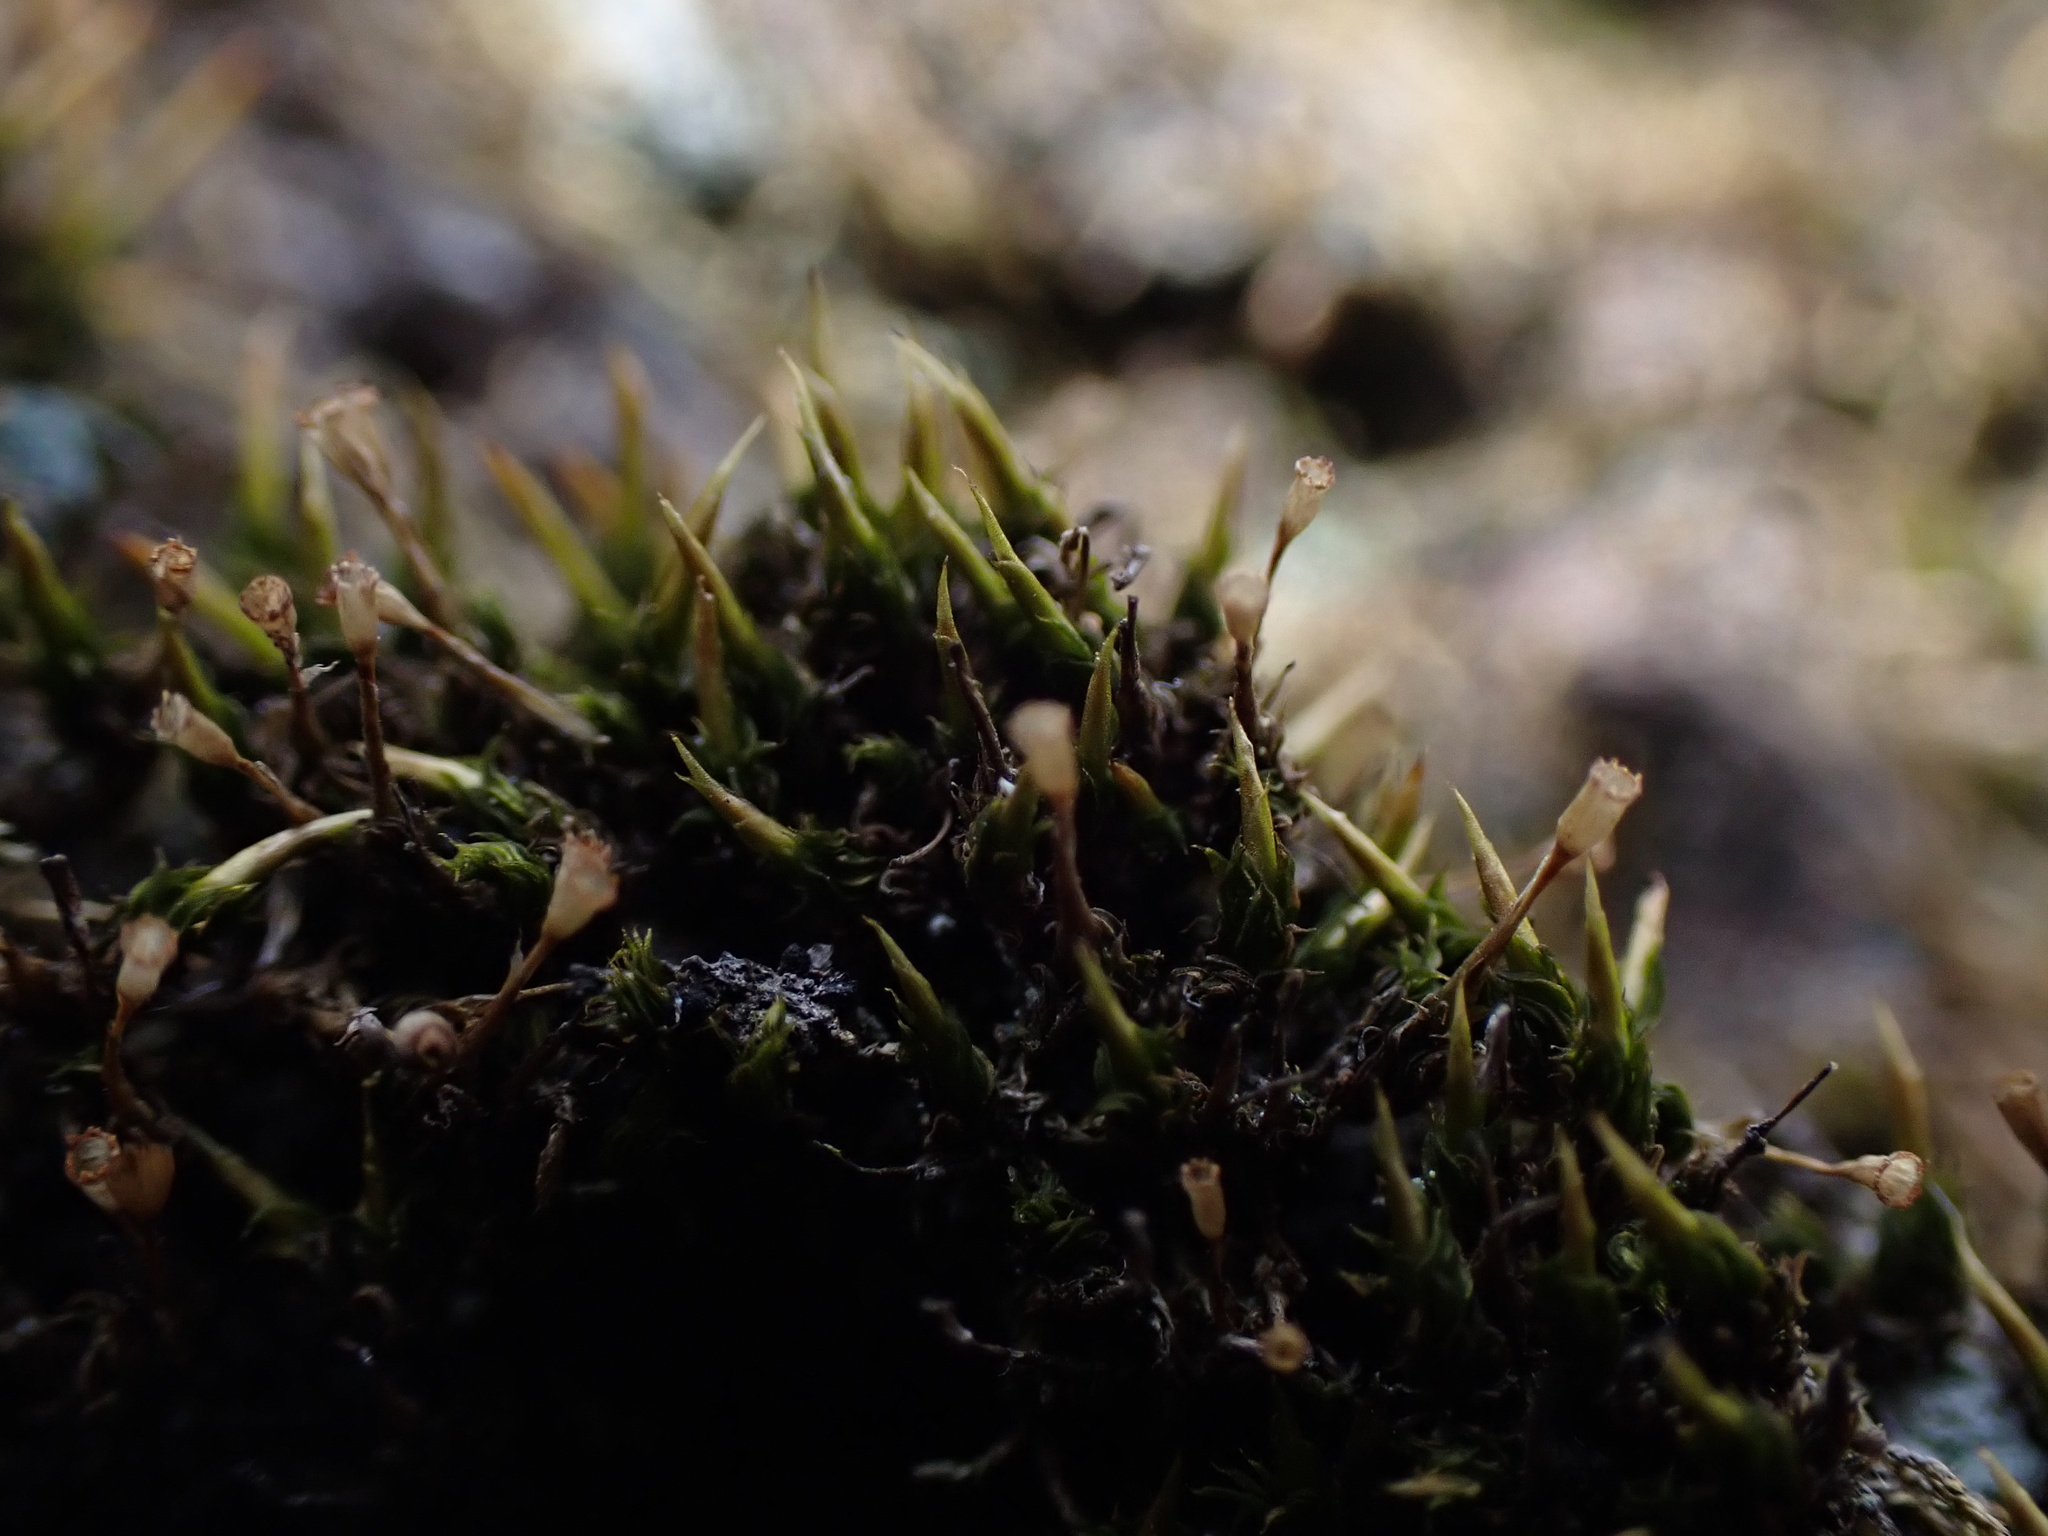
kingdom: Plantae
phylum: Bryophyta
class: Bryopsida
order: Dicranales
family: Rhabdoweisiaceae
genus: Glyphomitrium
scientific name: Glyphomitrium humillimum
